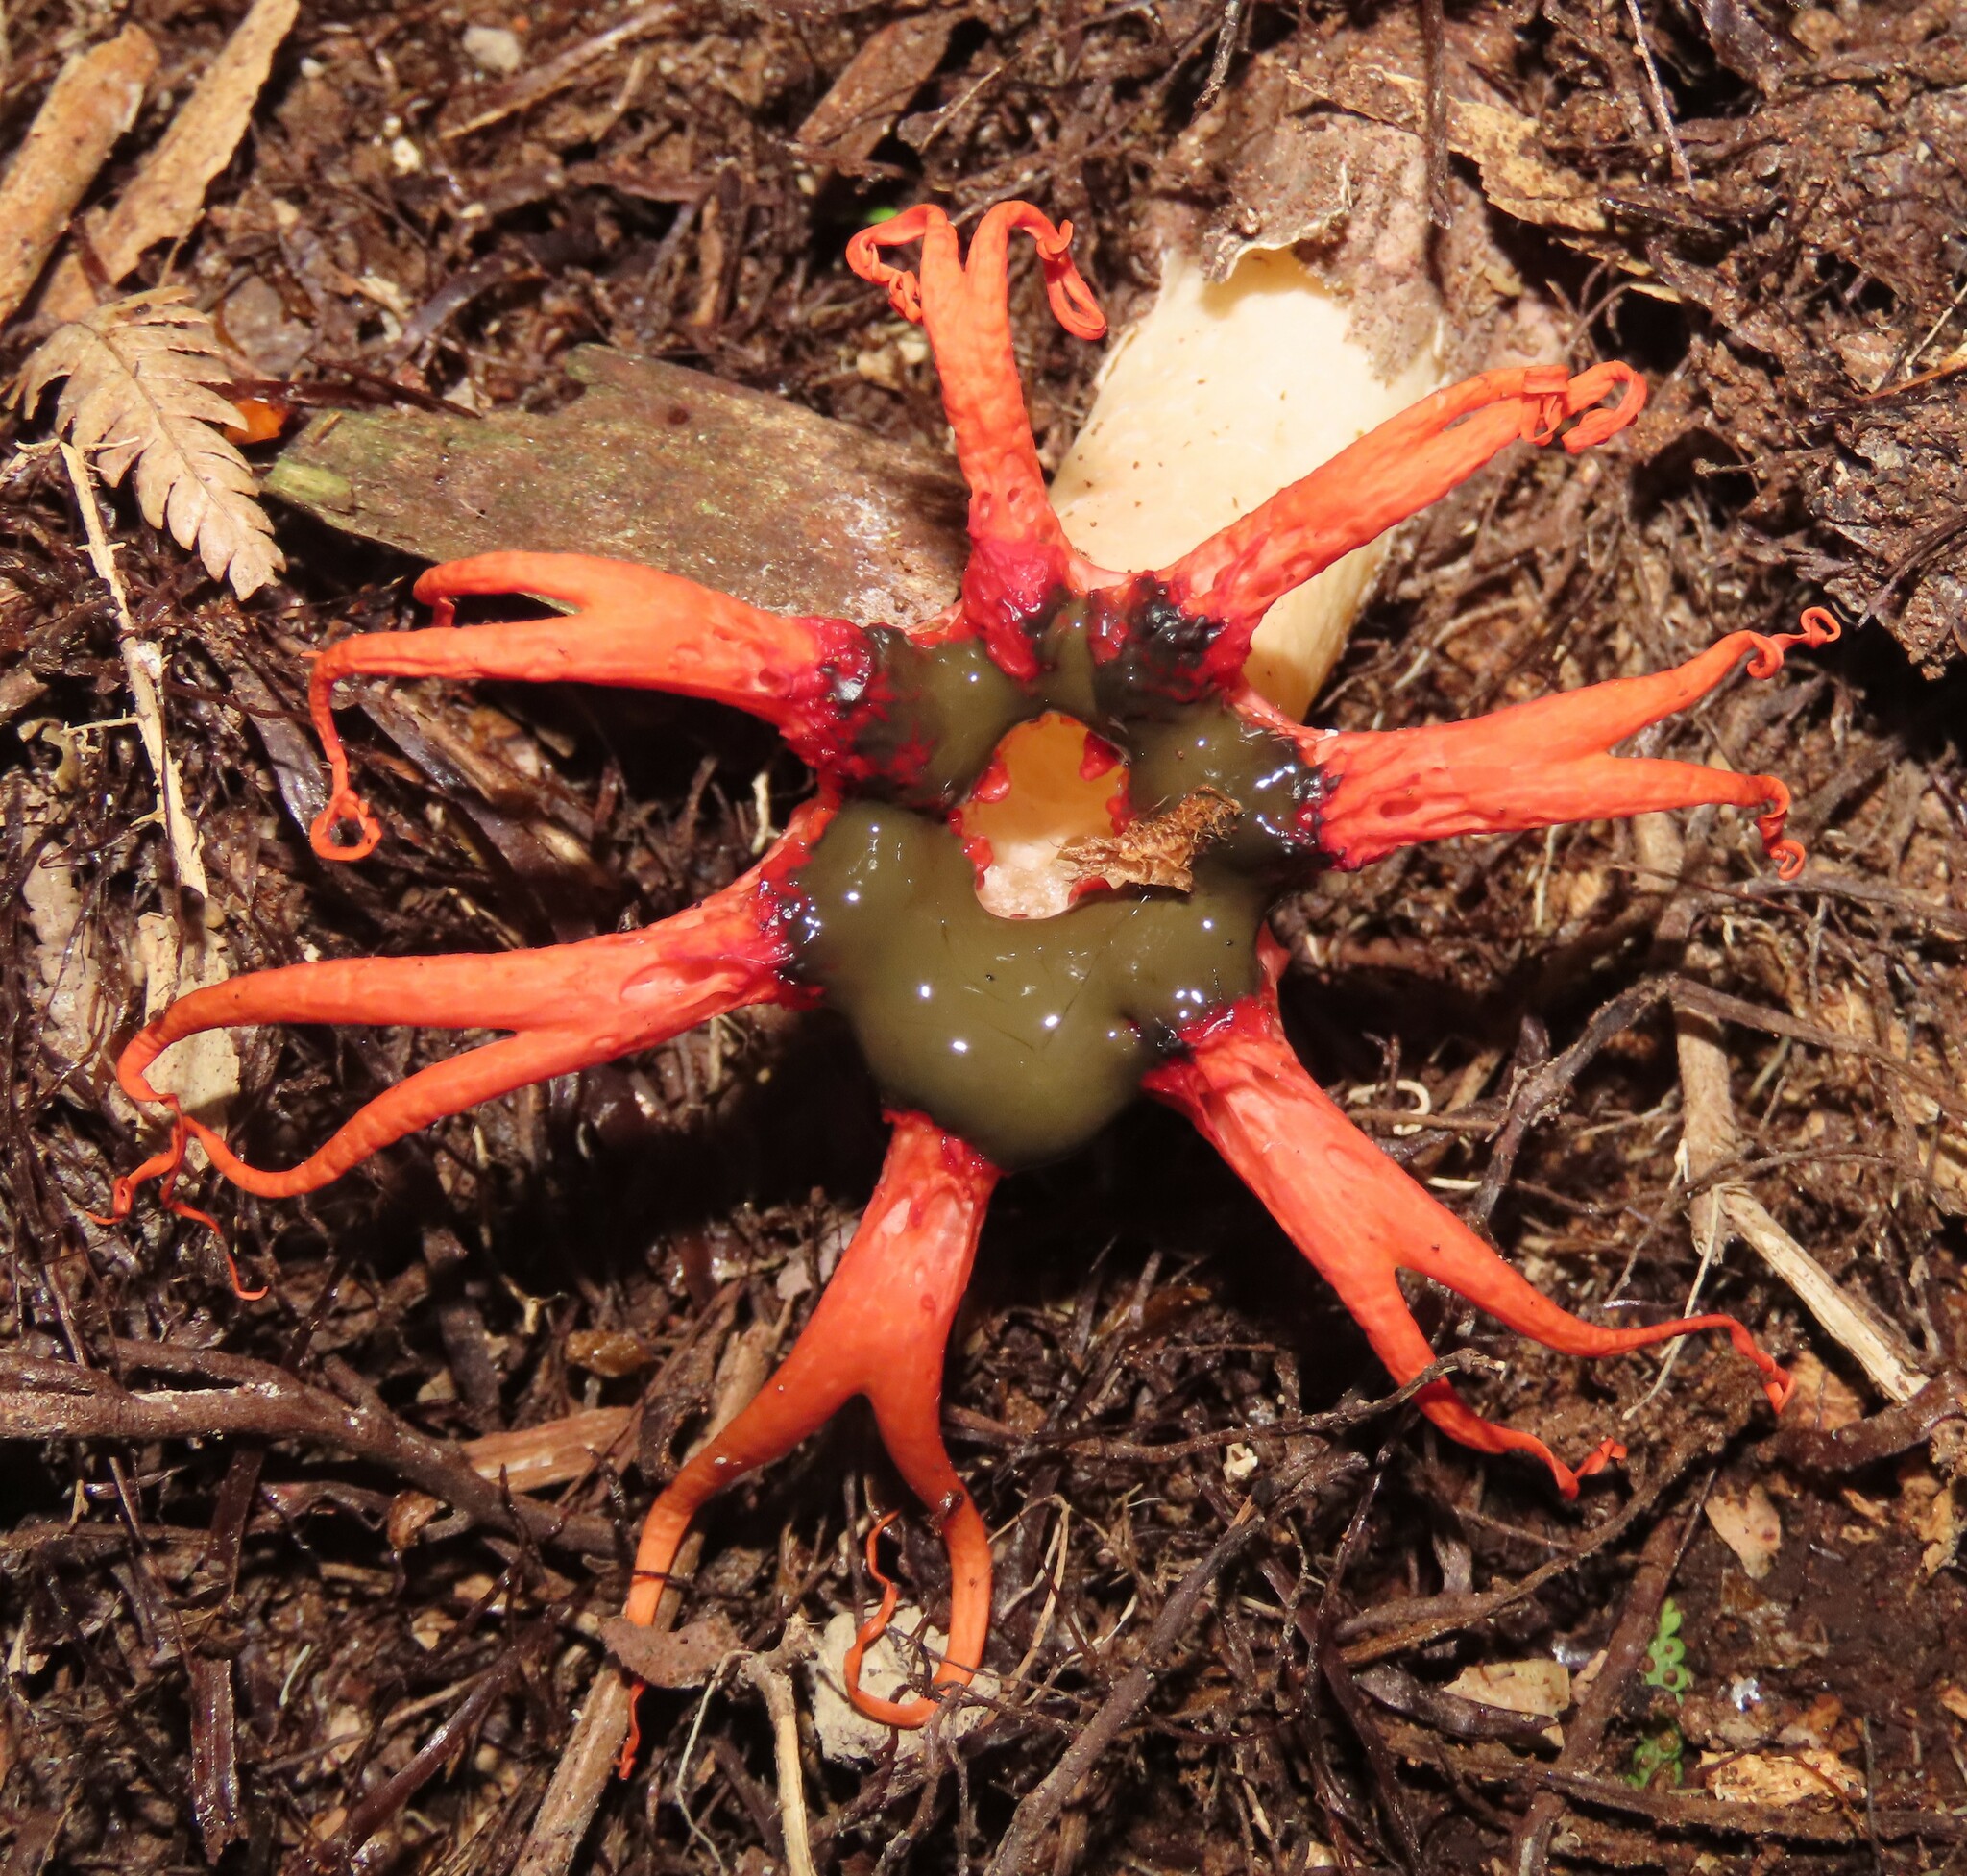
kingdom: Fungi
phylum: Basidiomycota
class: Agaricomycetes
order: Phallales
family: Phallaceae
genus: Aseroe
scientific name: Aseroe rubra
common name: Starfish fungus
